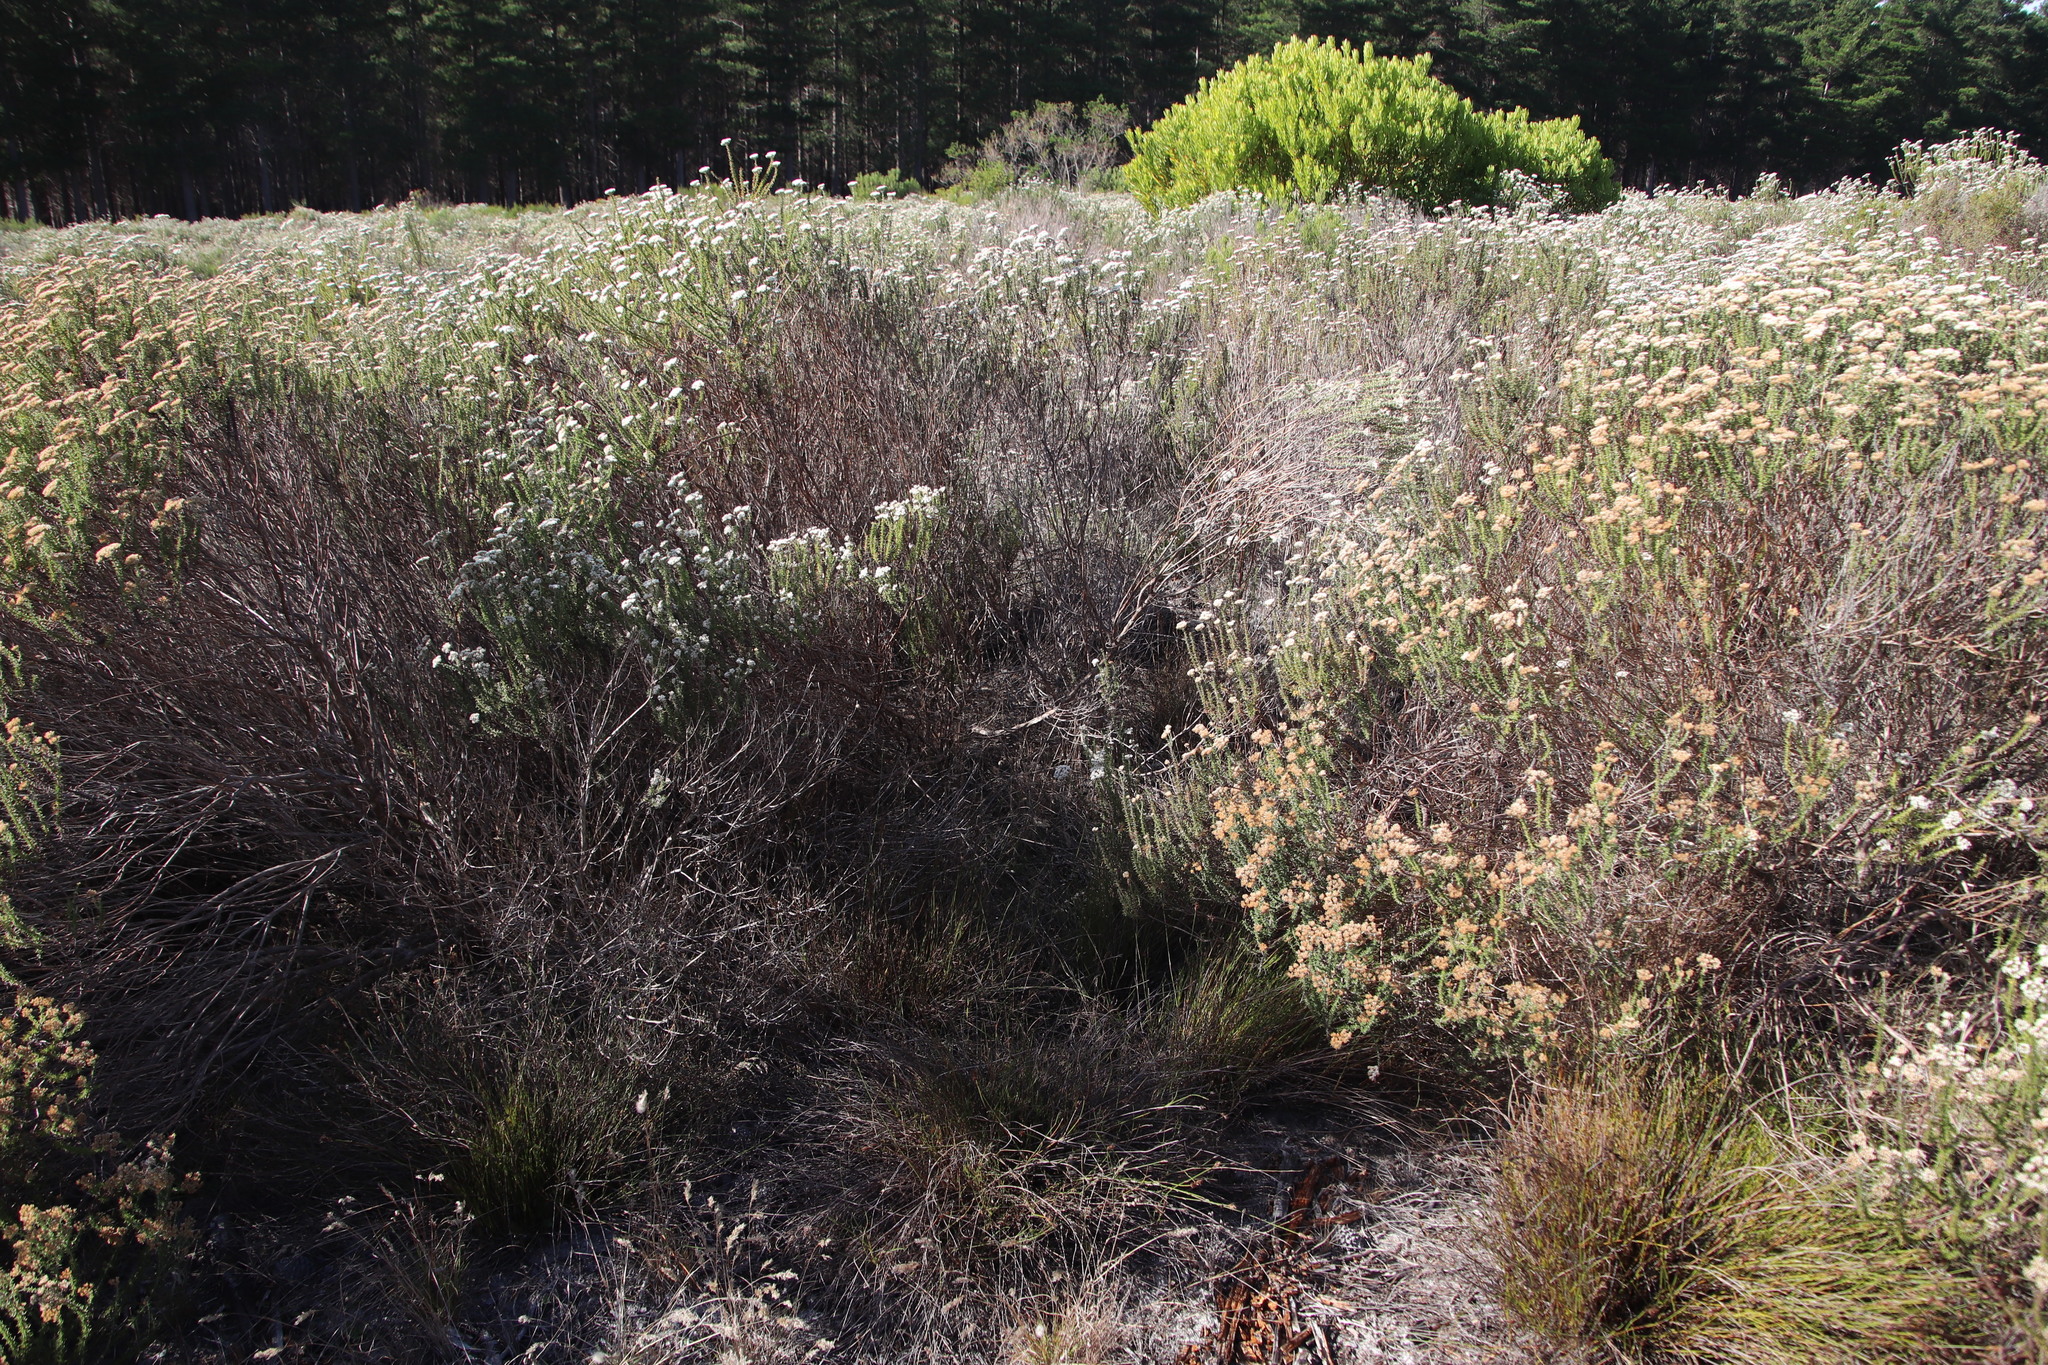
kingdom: Plantae
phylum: Tracheophyta
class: Liliopsida
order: Poales
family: Restionaceae
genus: Restio
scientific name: Restio capensis
